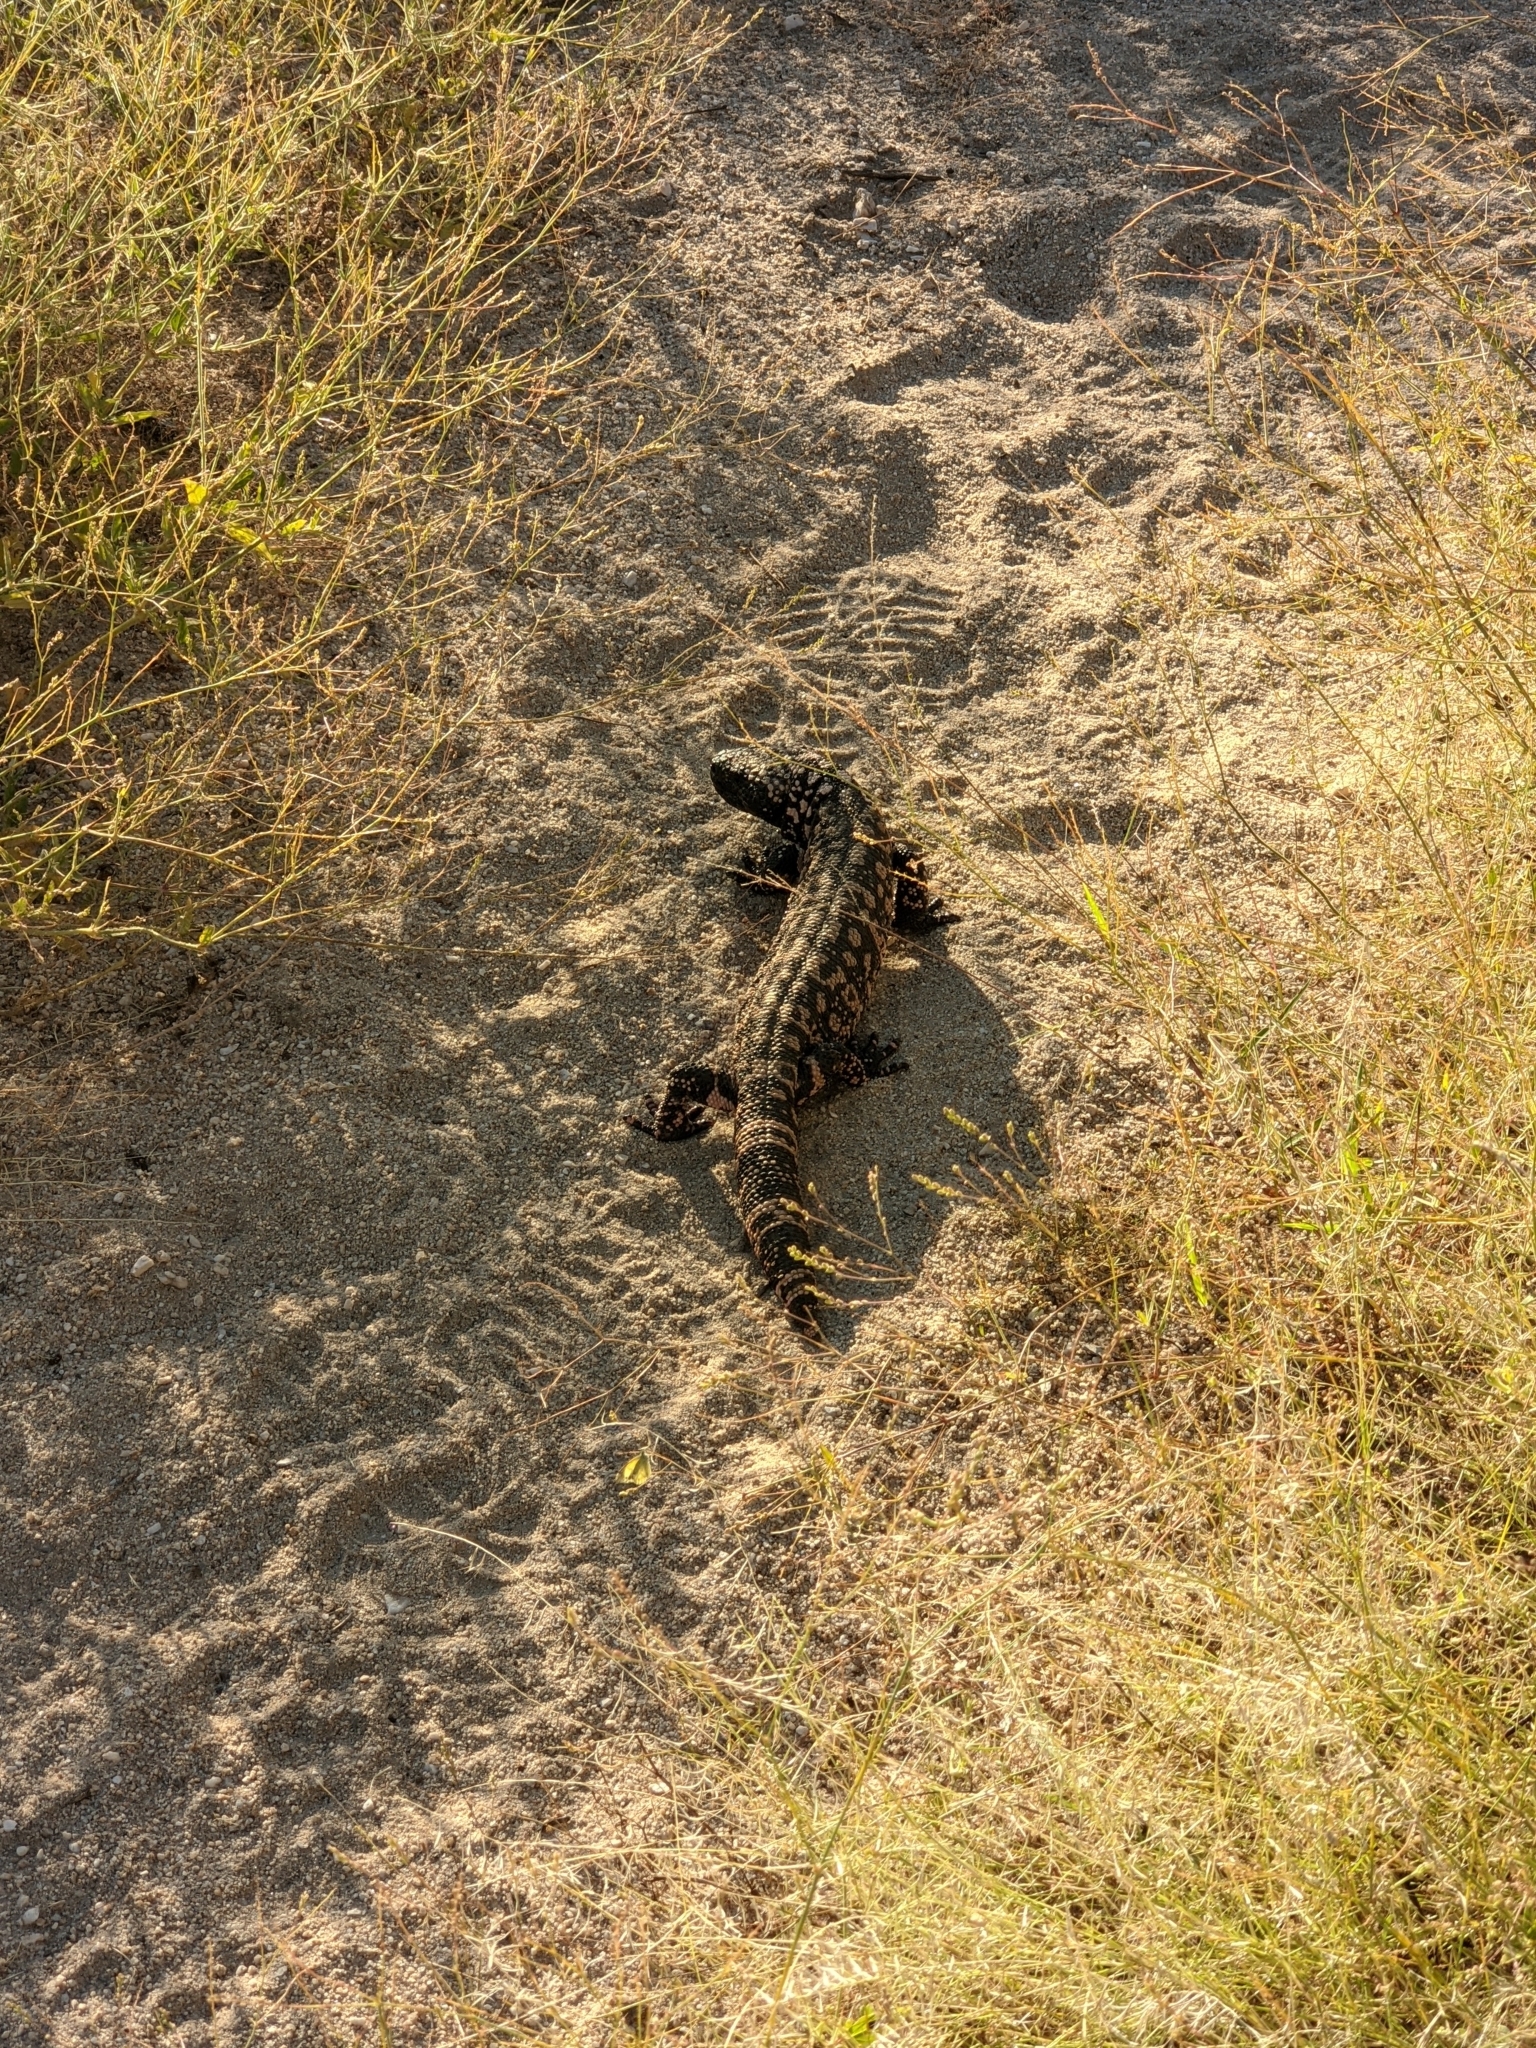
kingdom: Animalia
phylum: Chordata
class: Squamata
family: Helodermatidae
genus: Heloderma
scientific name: Heloderma suspectum
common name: Gila monster
